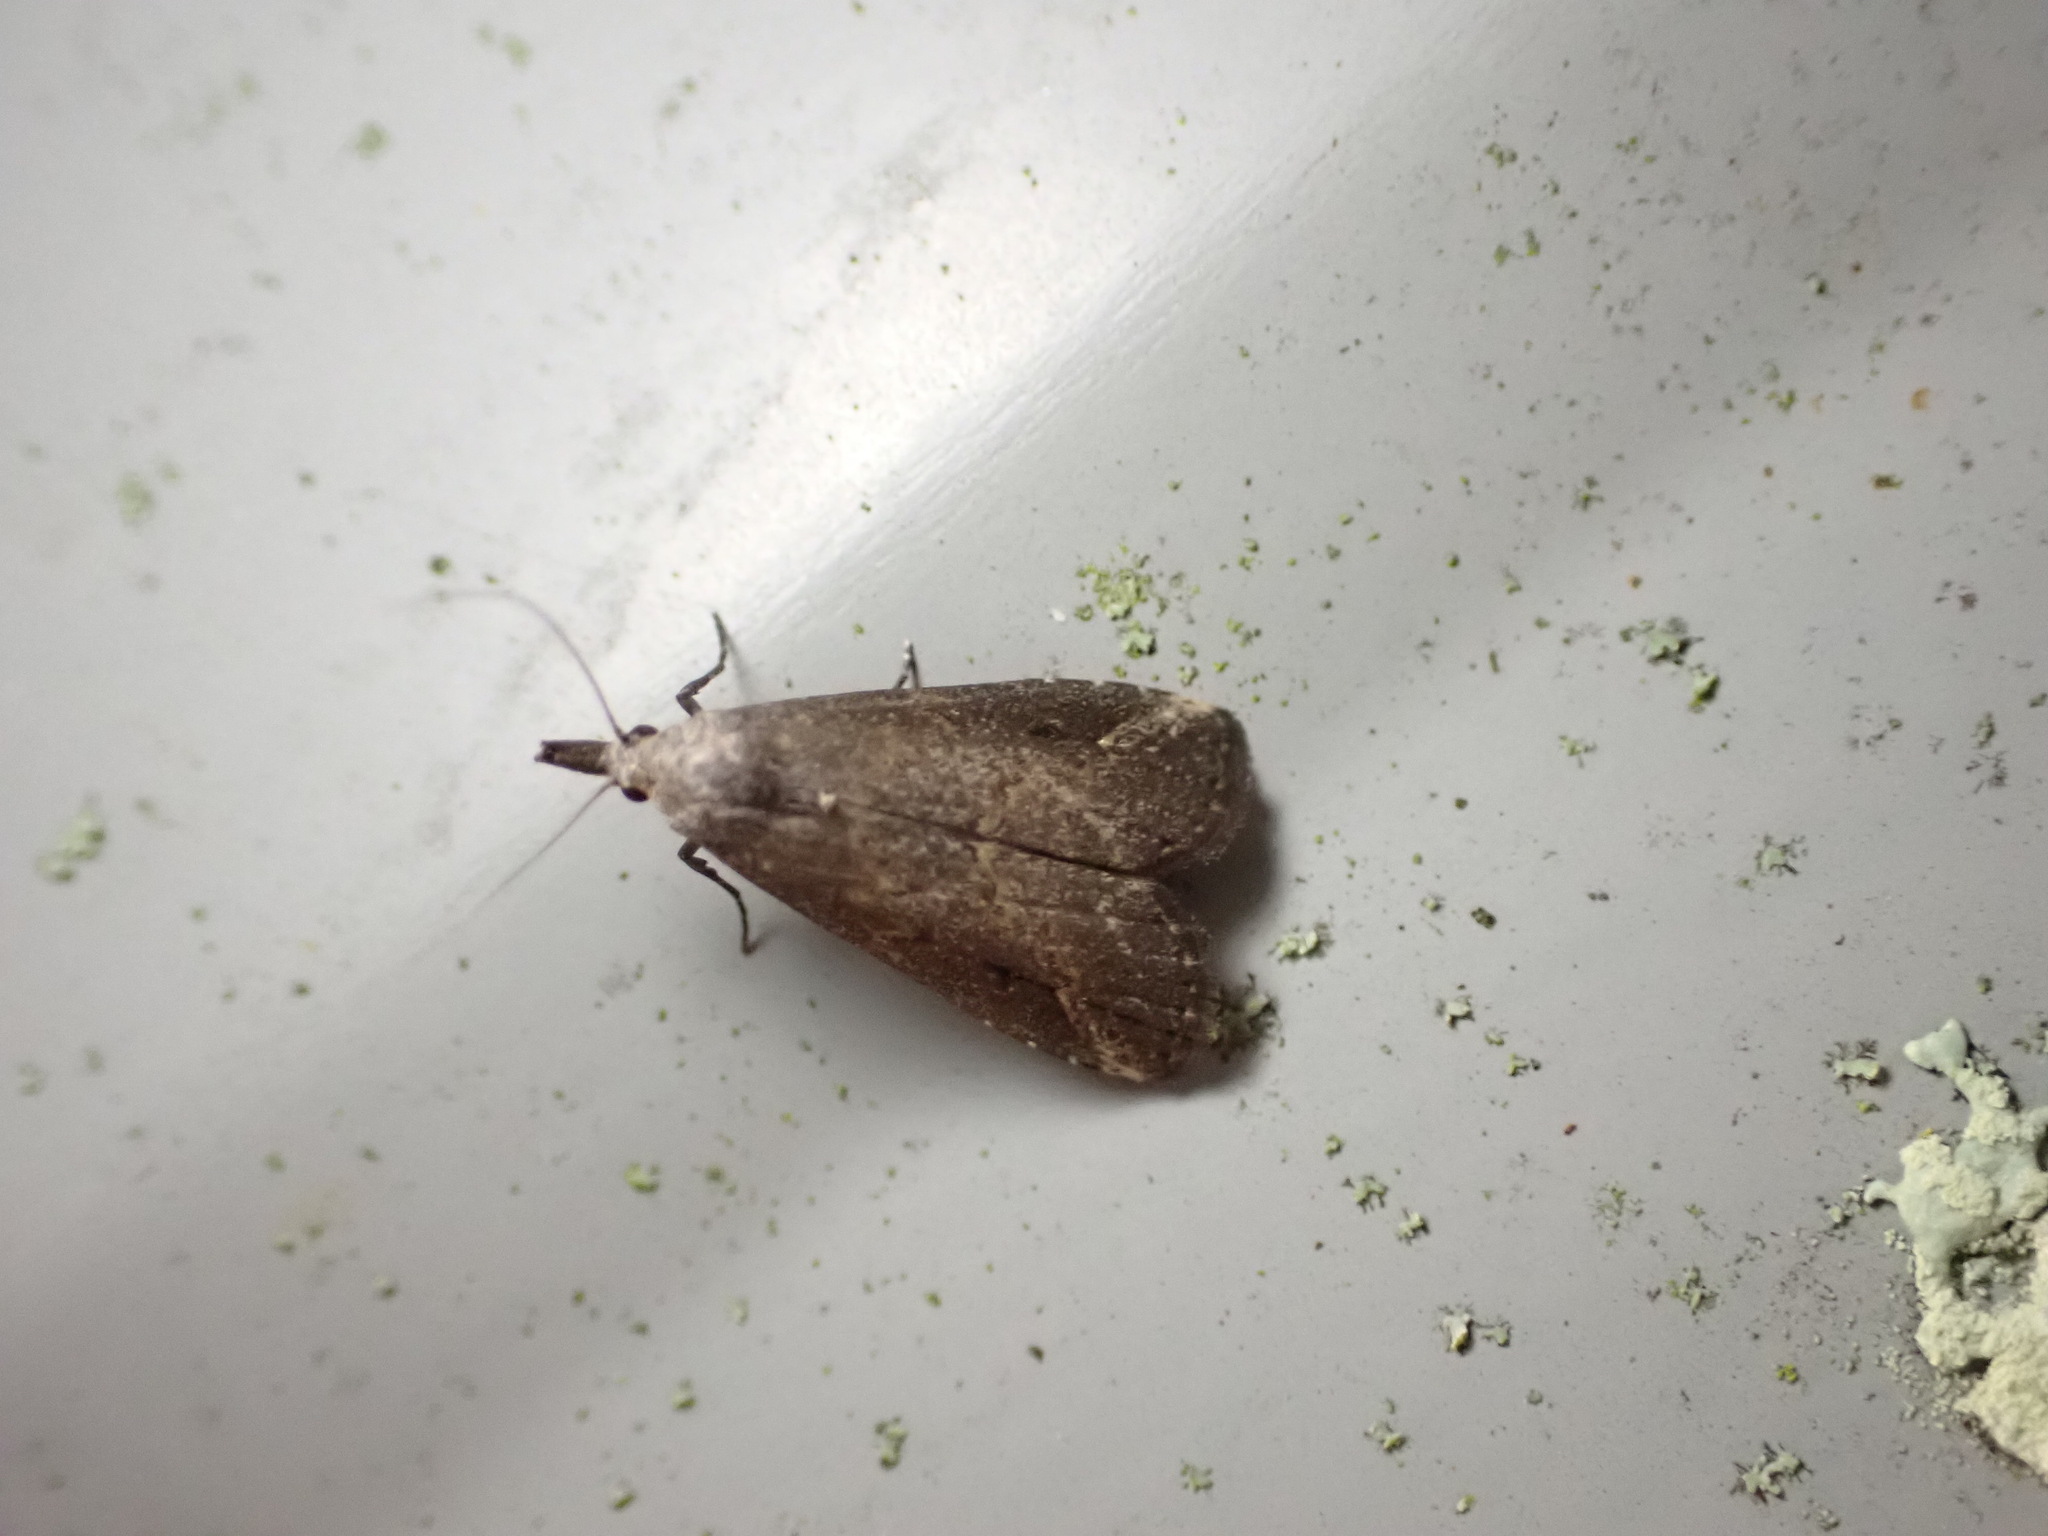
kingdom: Animalia
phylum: Arthropoda
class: Insecta
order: Lepidoptera
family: Erebidae
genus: Schrankia
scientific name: Schrankia costaestrigalis
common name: Pinion-streaked snout
